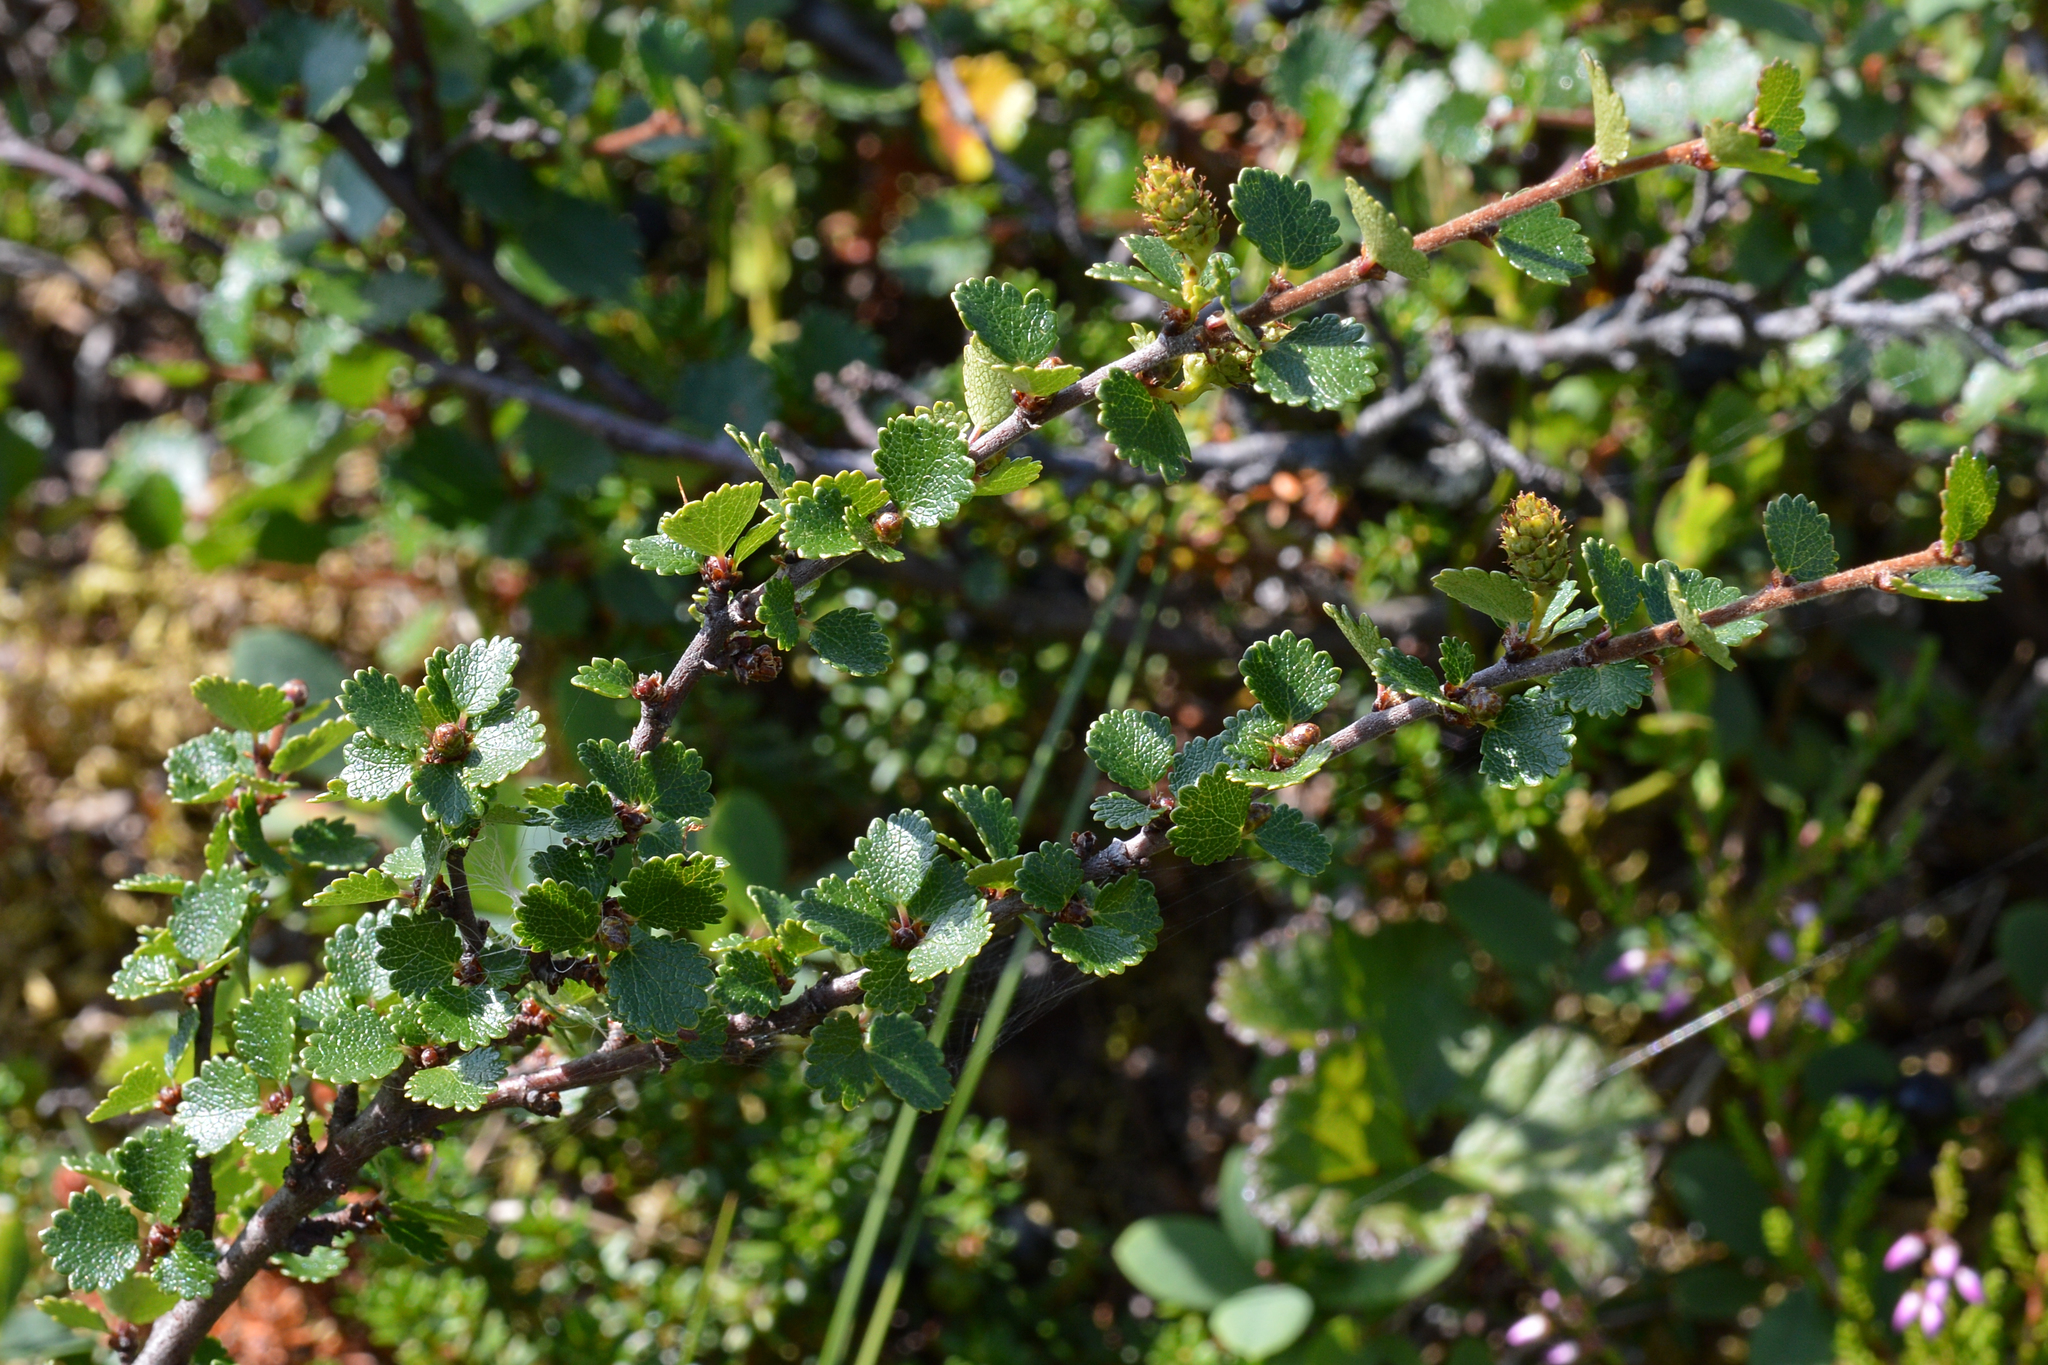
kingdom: Plantae
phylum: Tracheophyta
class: Magnoliopsida
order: Fagales
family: Betulaceae
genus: Betula
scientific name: Betula nana
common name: Arctic dwarf birch
